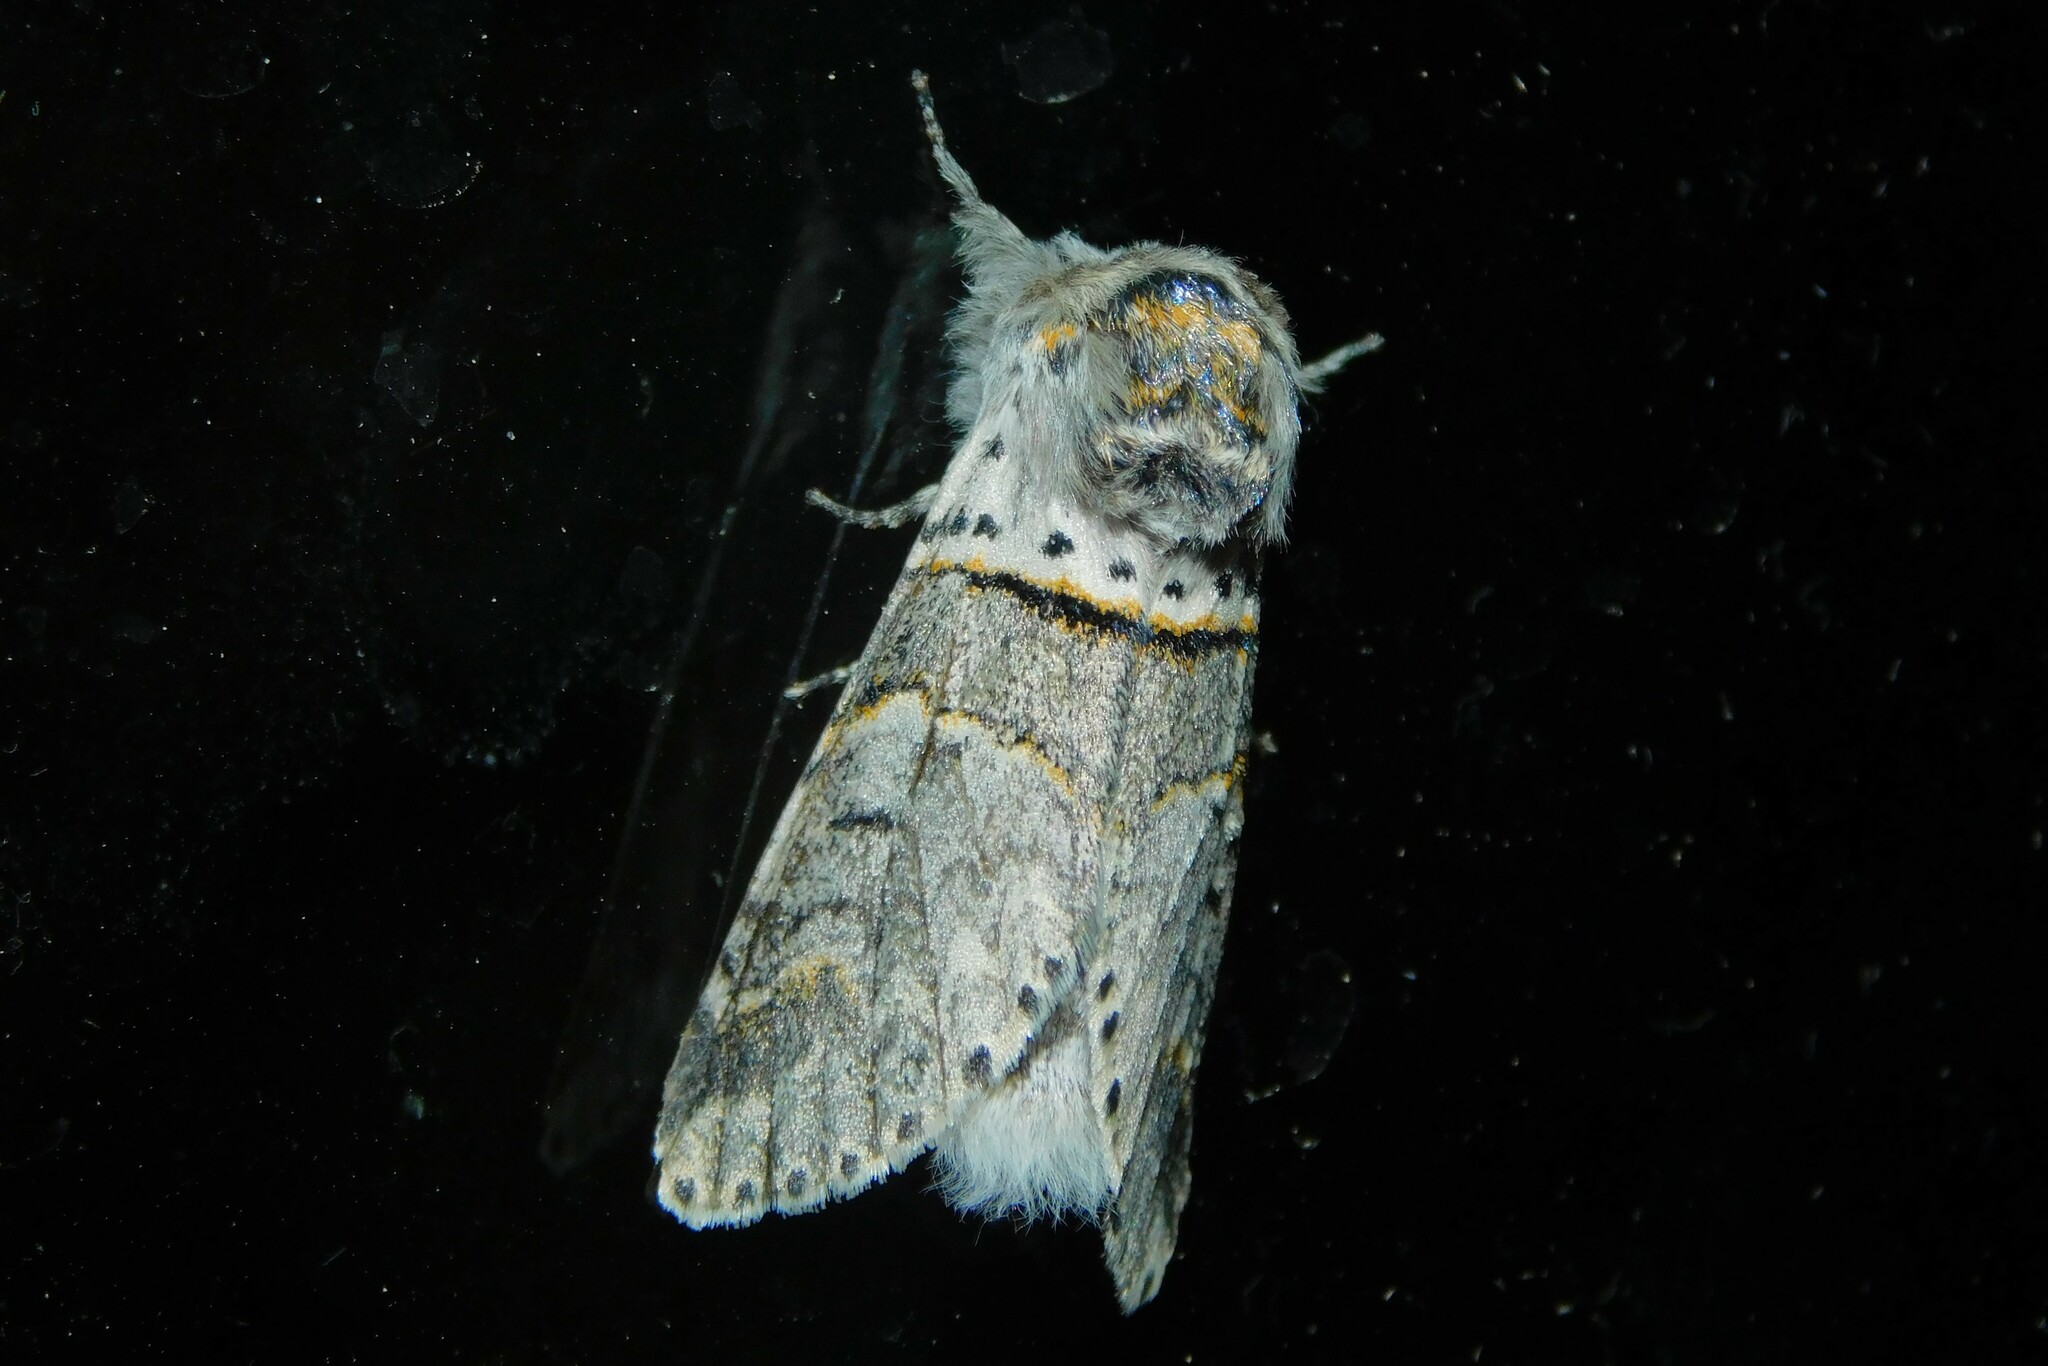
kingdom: Animalia
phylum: Arthropoda
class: Insecta
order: Lepidoptera
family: Notodontidae
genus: Furcula
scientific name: Furcula bifida
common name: Poplar kitten
